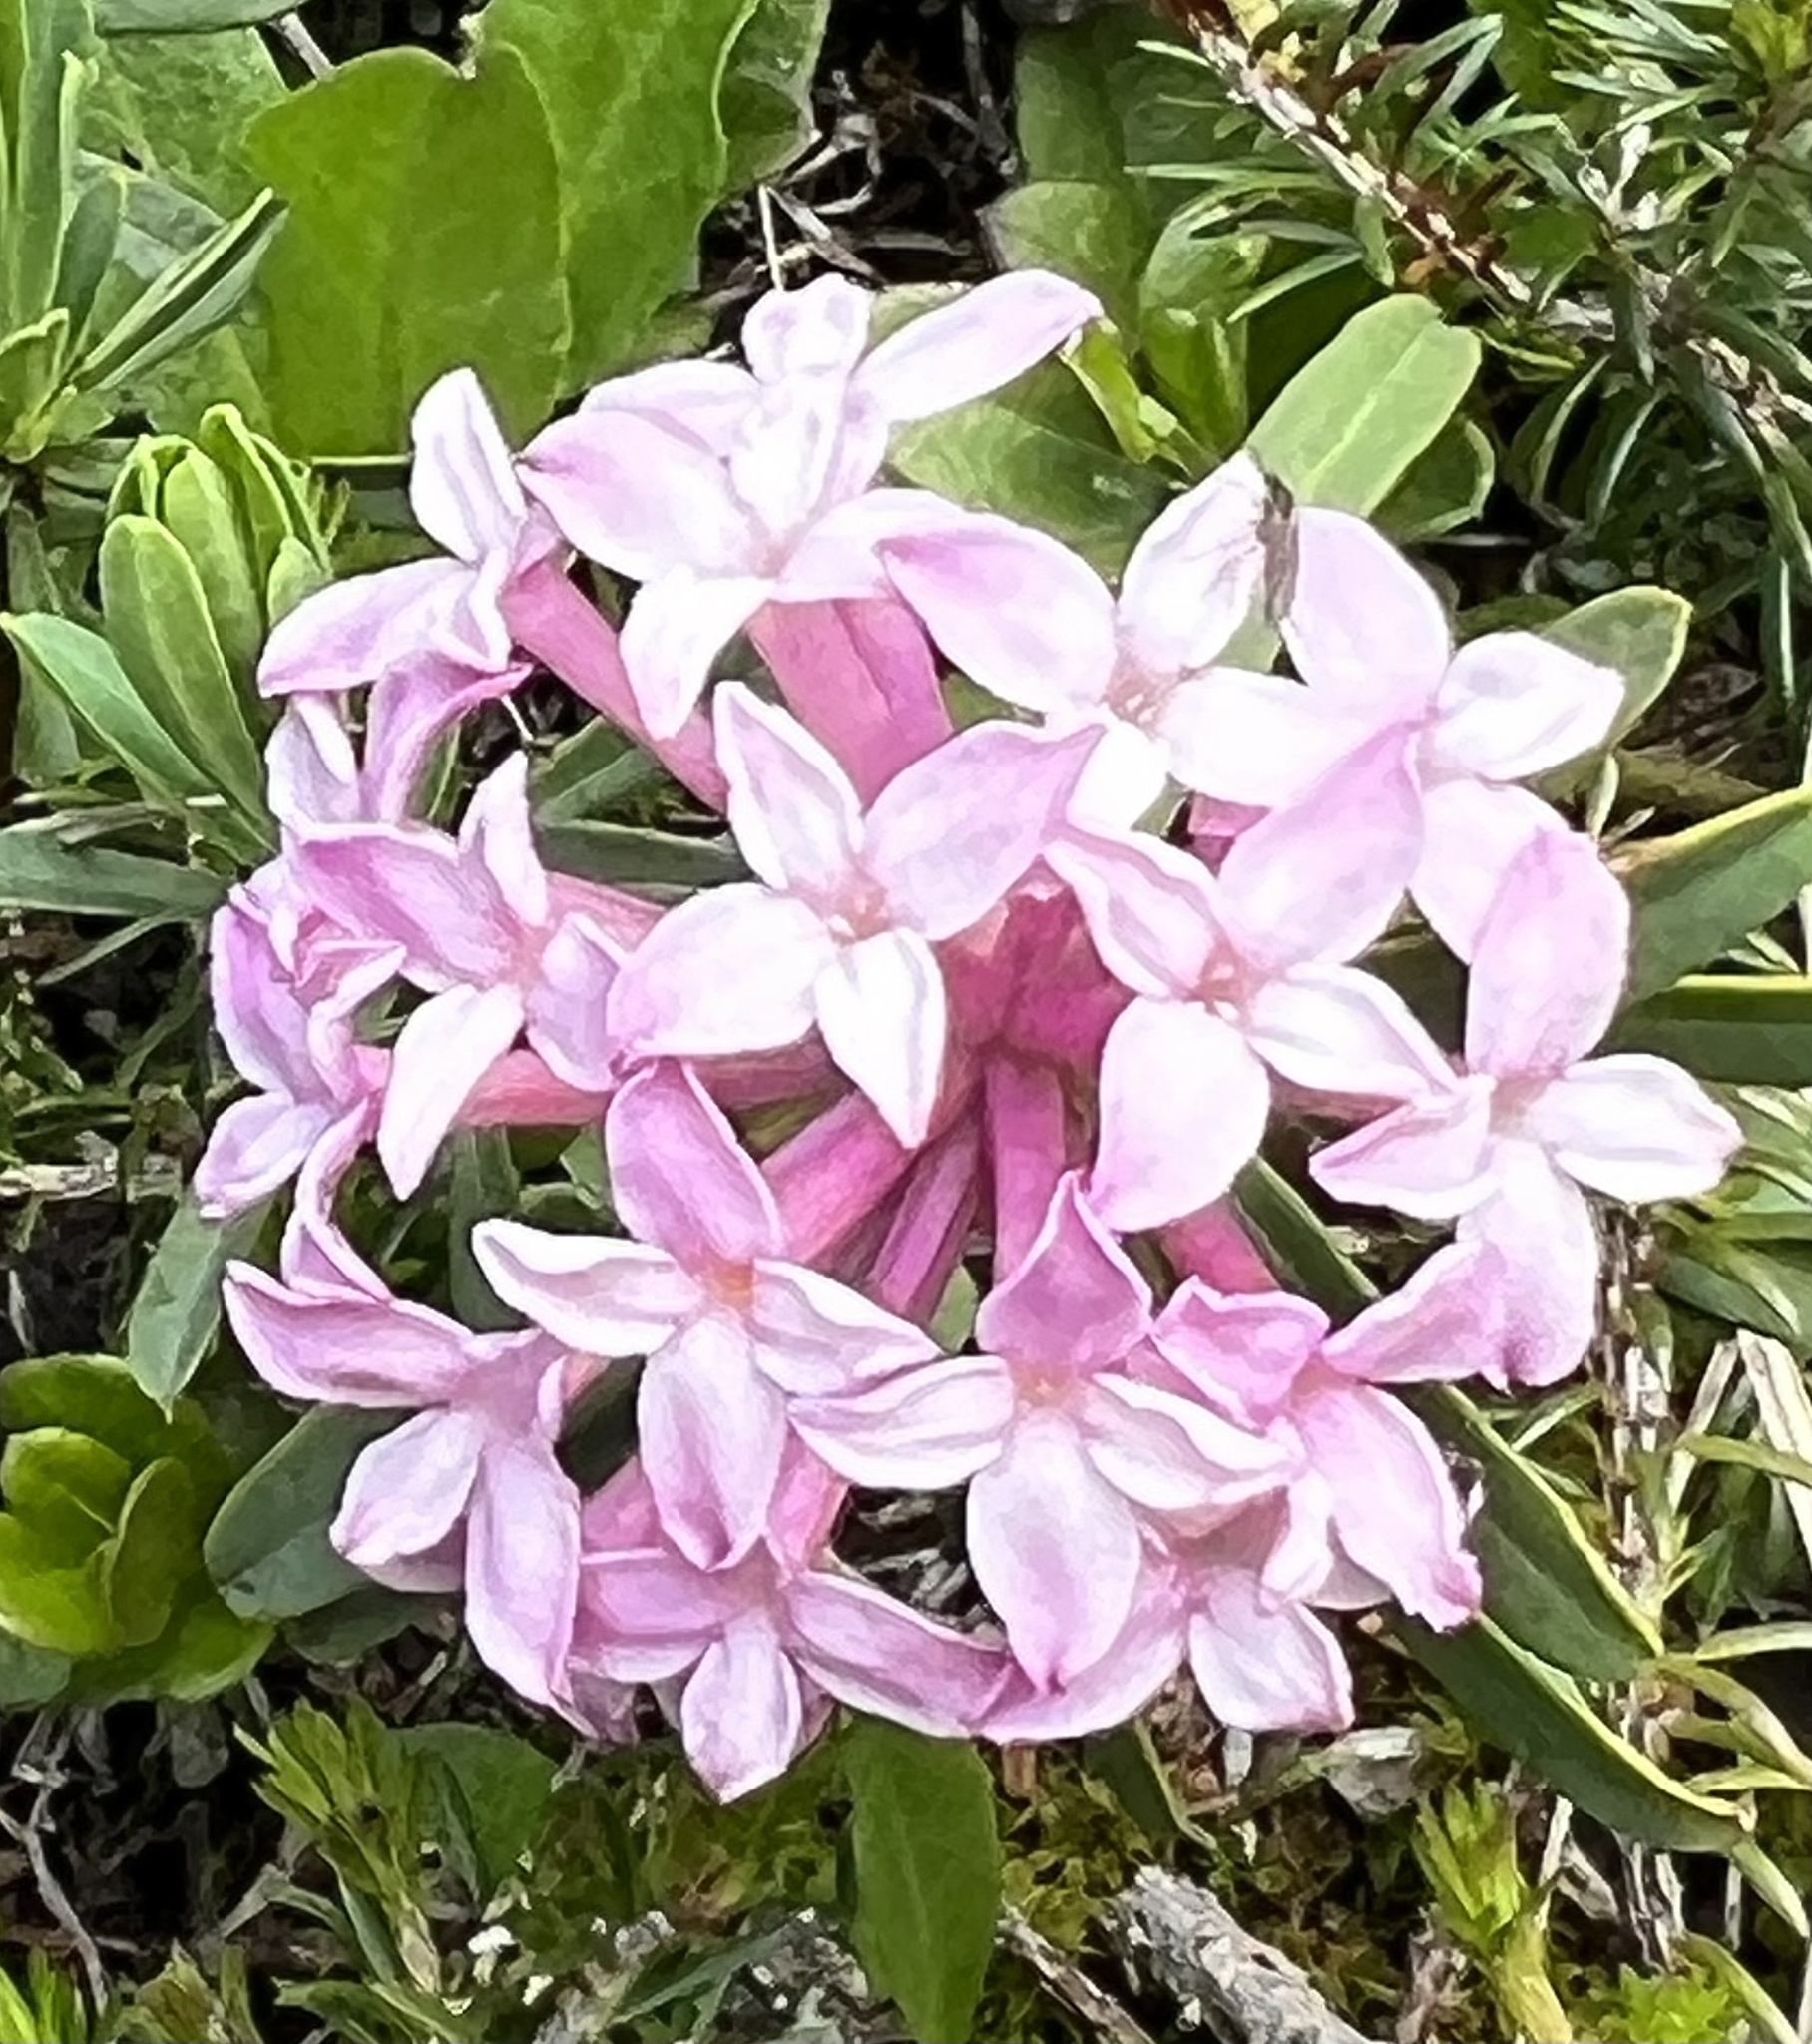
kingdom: Plantae
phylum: Tracheophyta
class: Magnoliopsida
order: Malvales
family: Thymelaeaceae
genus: Daphne
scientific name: Daphne striata
